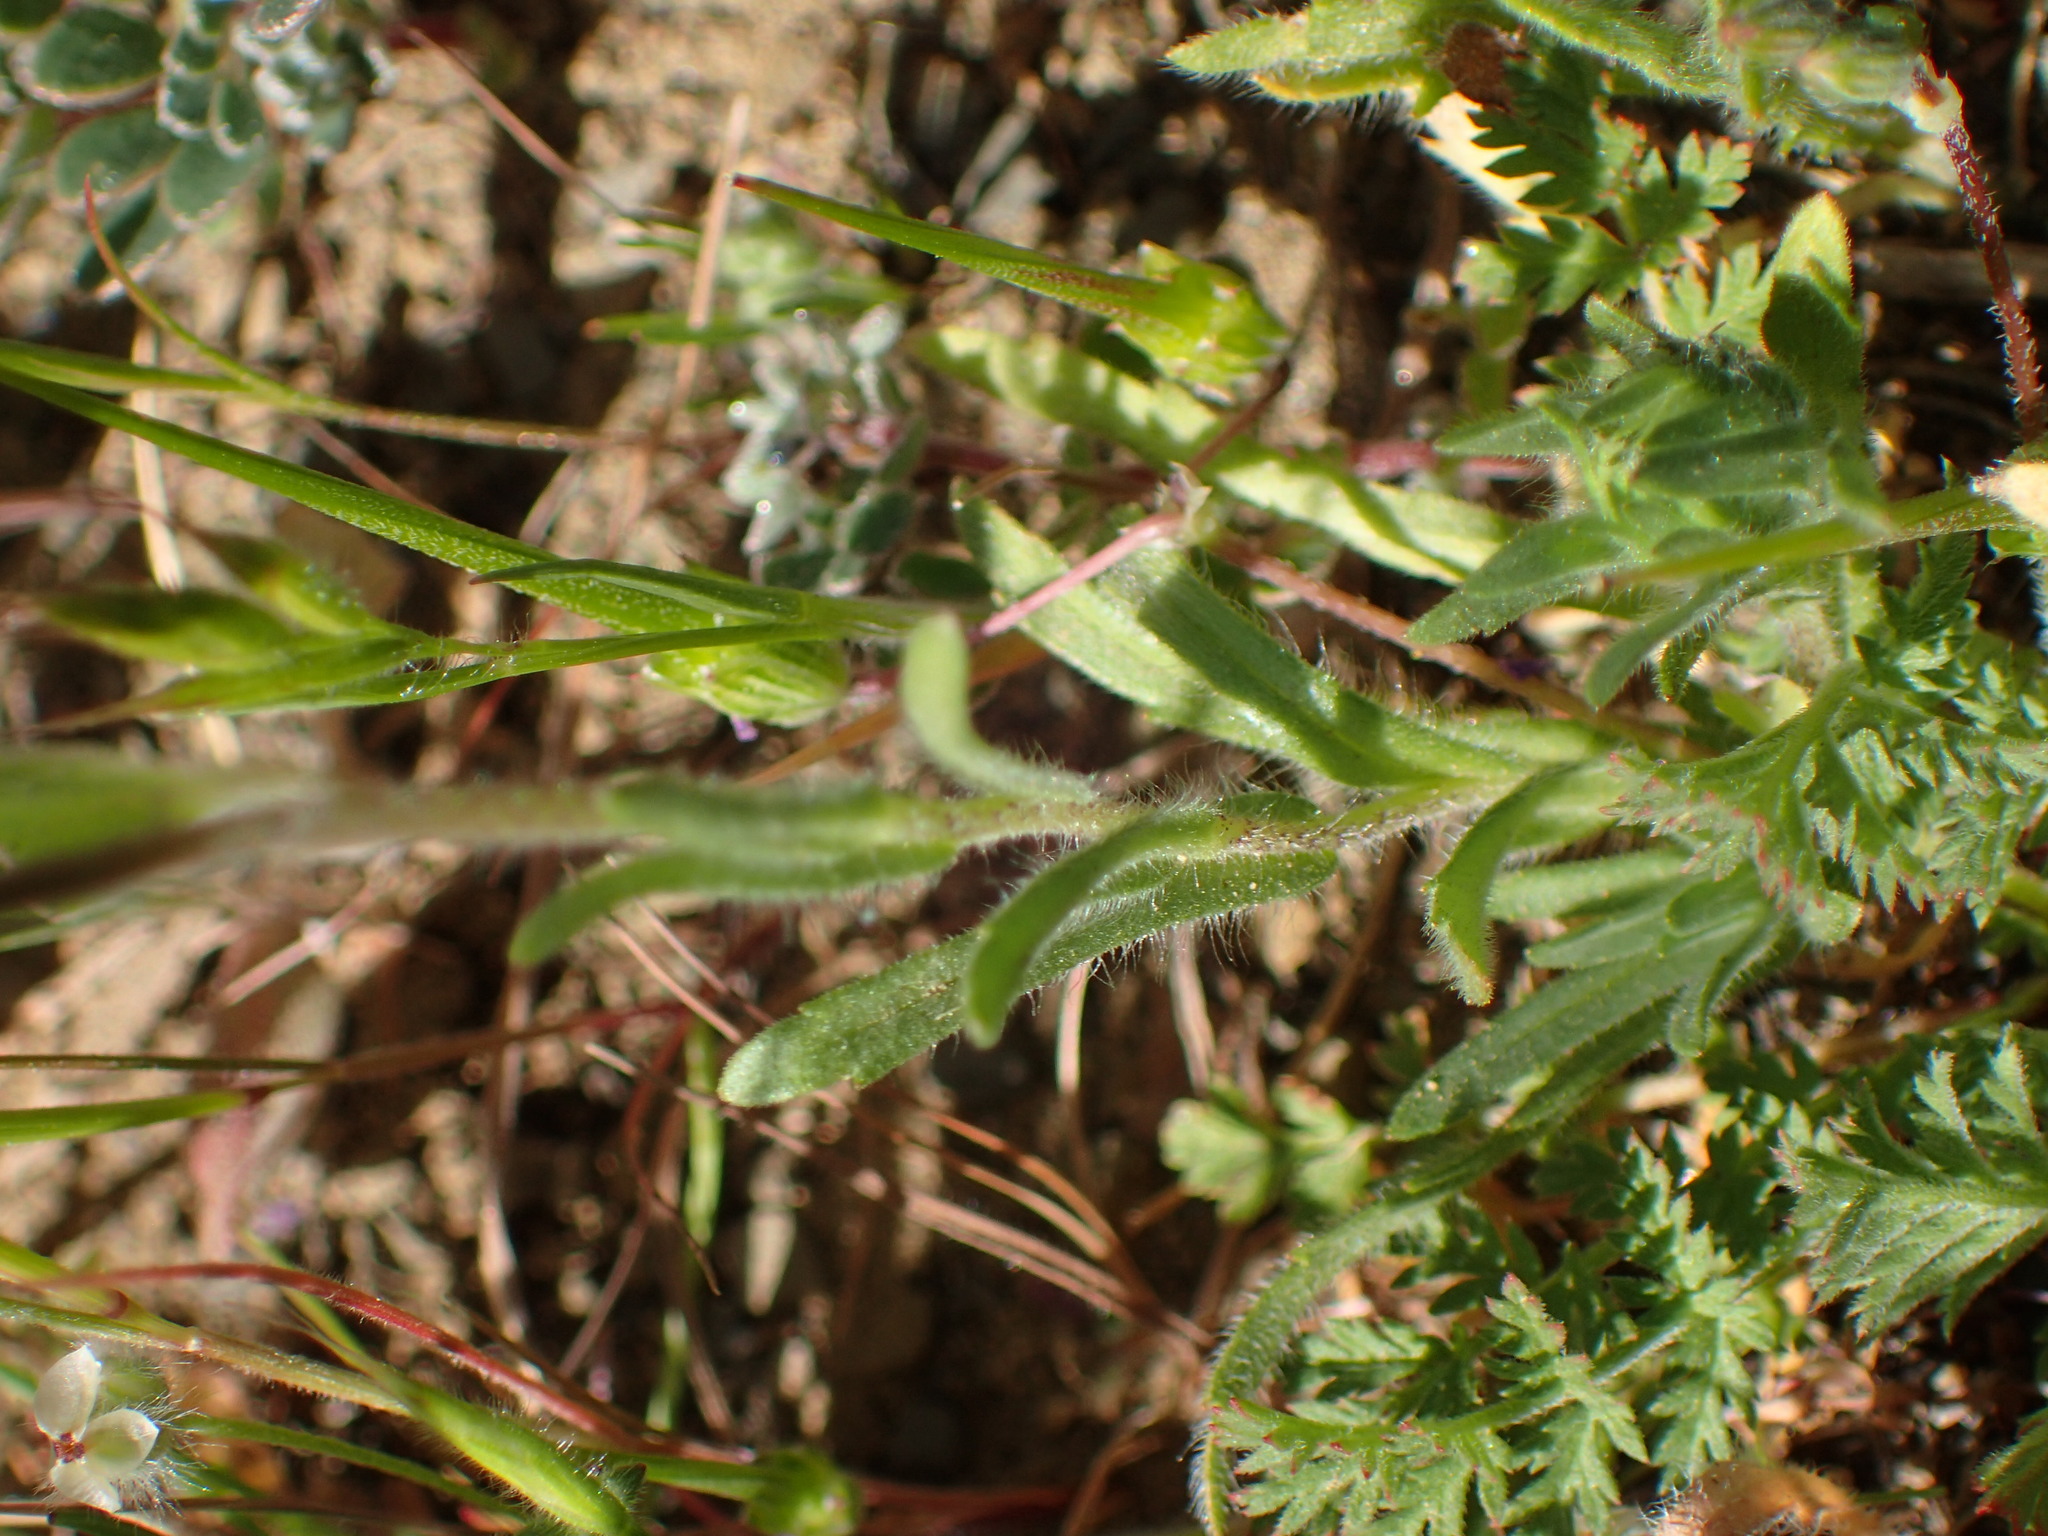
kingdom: Plantae
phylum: Tracheophyta
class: Magnoliopsida
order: Asterales
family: Asteraceae
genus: Layia
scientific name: Layia platyglossa
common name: Tidy-tips
